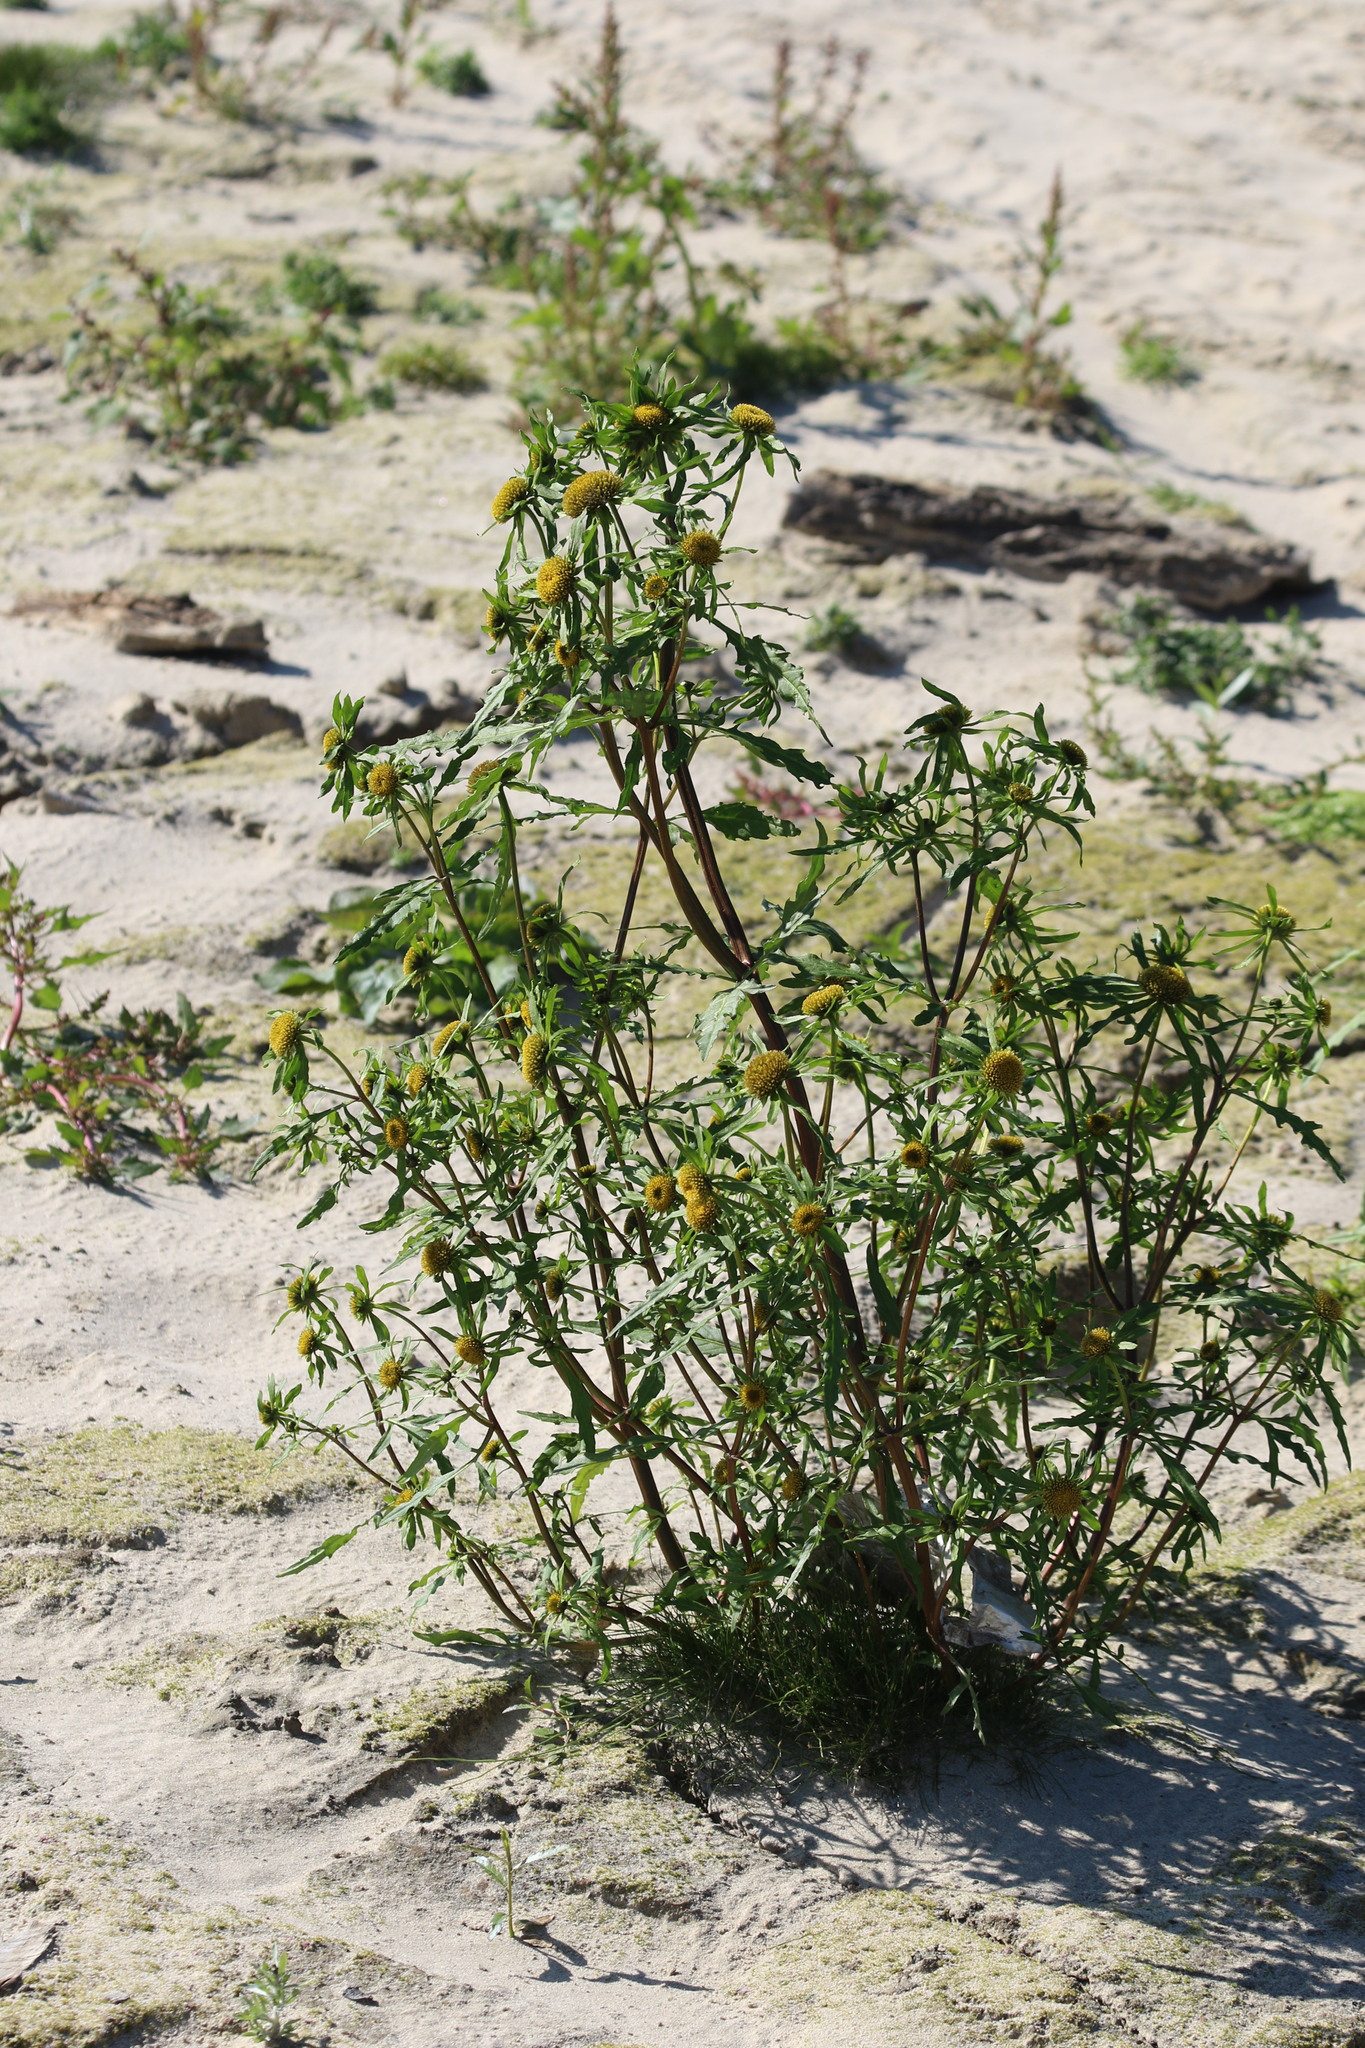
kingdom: Plantae
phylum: Tracheophyta
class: Magnoliopsida
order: Asterales
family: Asteraceae
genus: Bidens
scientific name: Bidens radiata
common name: Radiating bur-marigold
